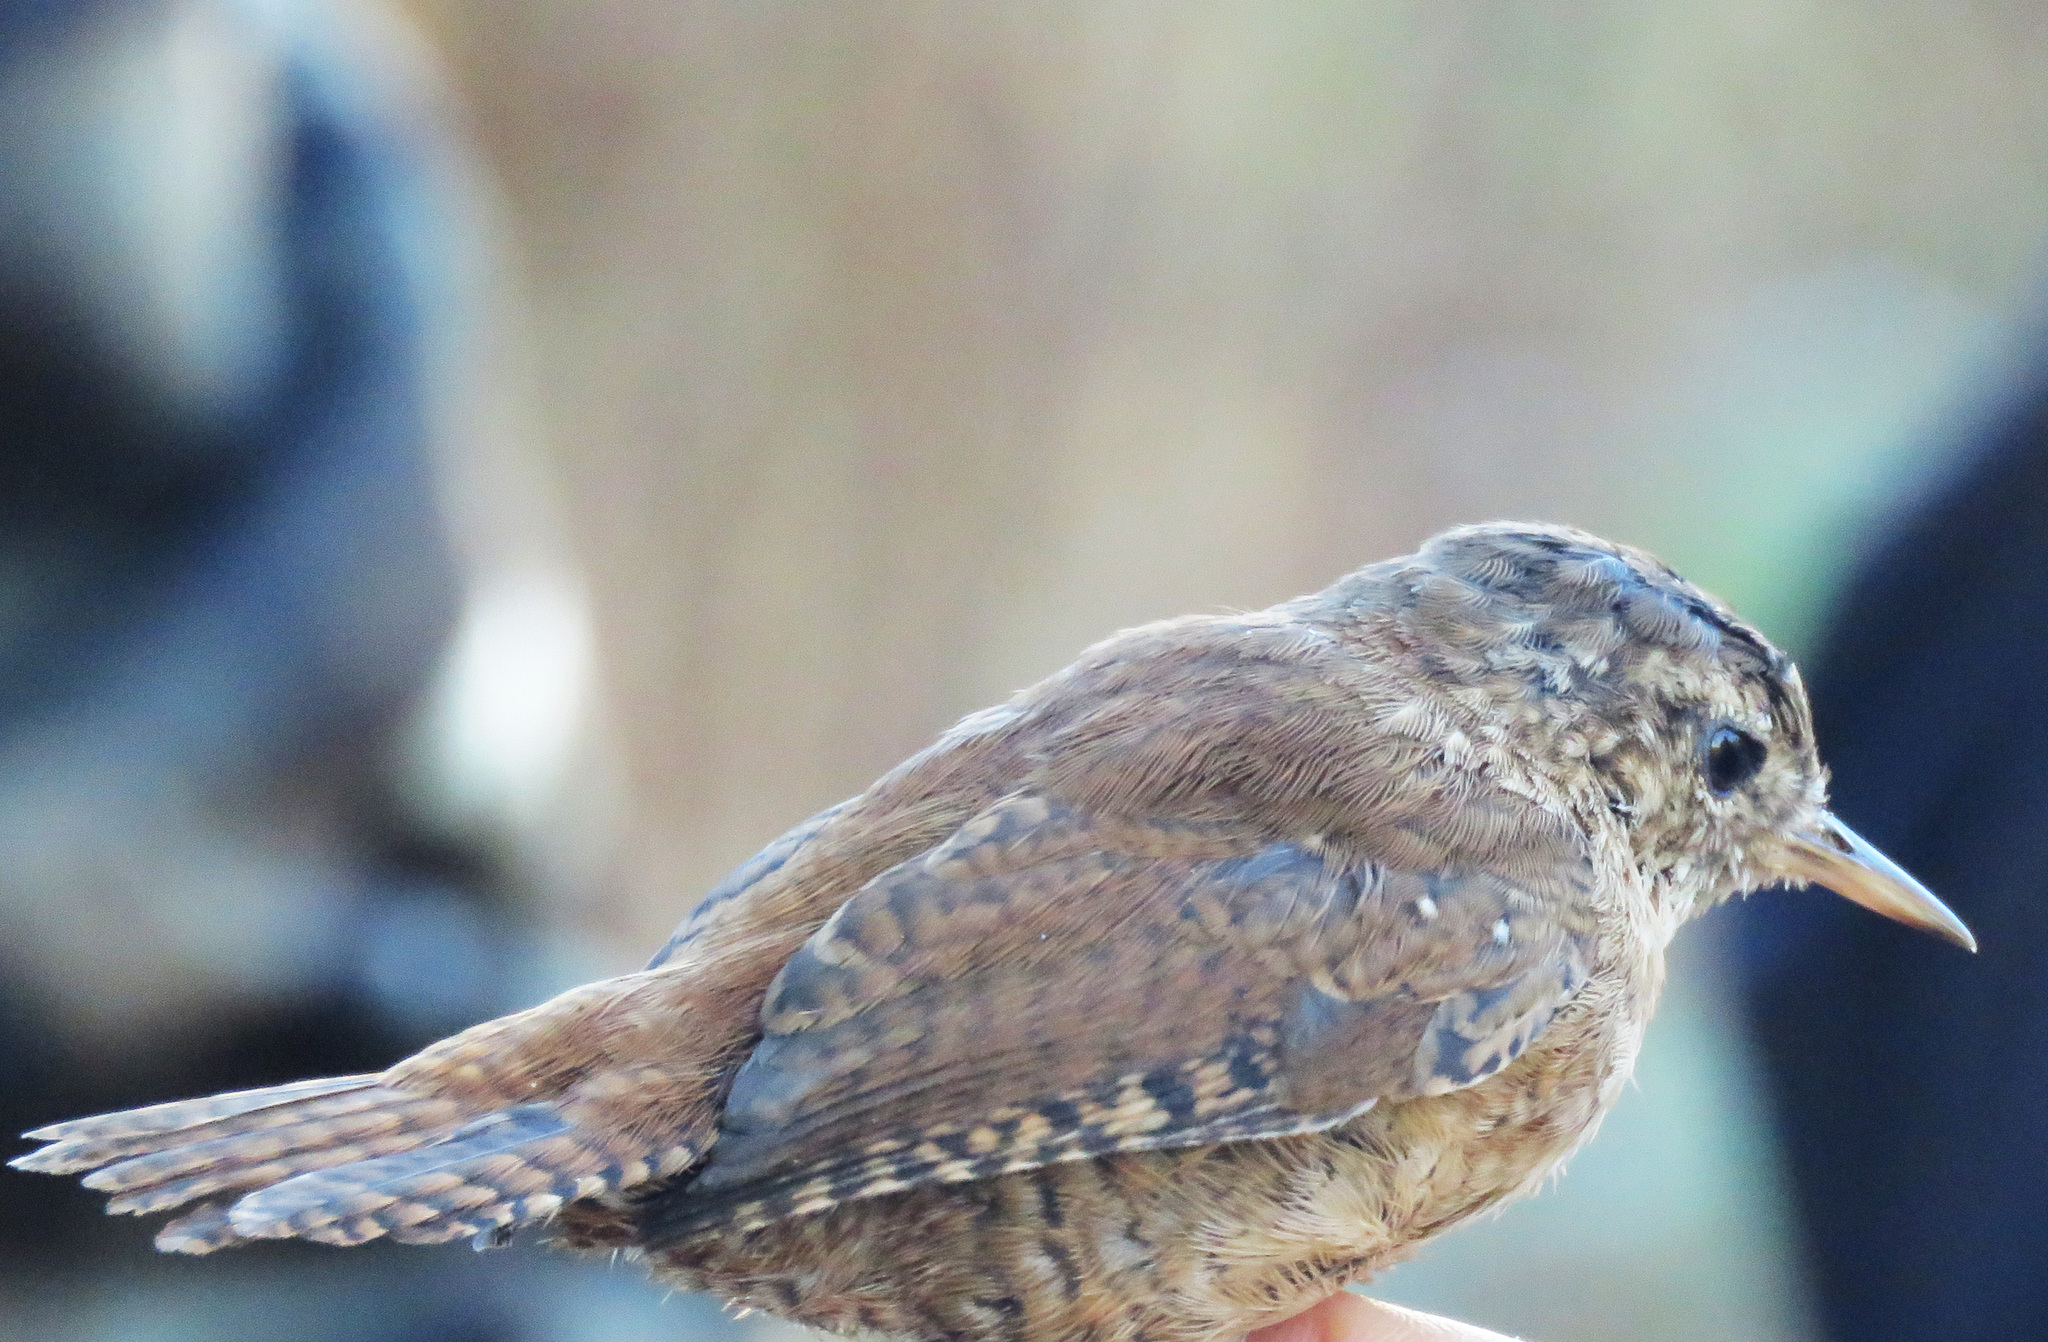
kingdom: Animalia
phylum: Chordata
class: Aves
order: Passeriformes
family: Troglodytidae
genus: Troglodytes
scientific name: Troglodytes troglodytes
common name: Eurasian wren
